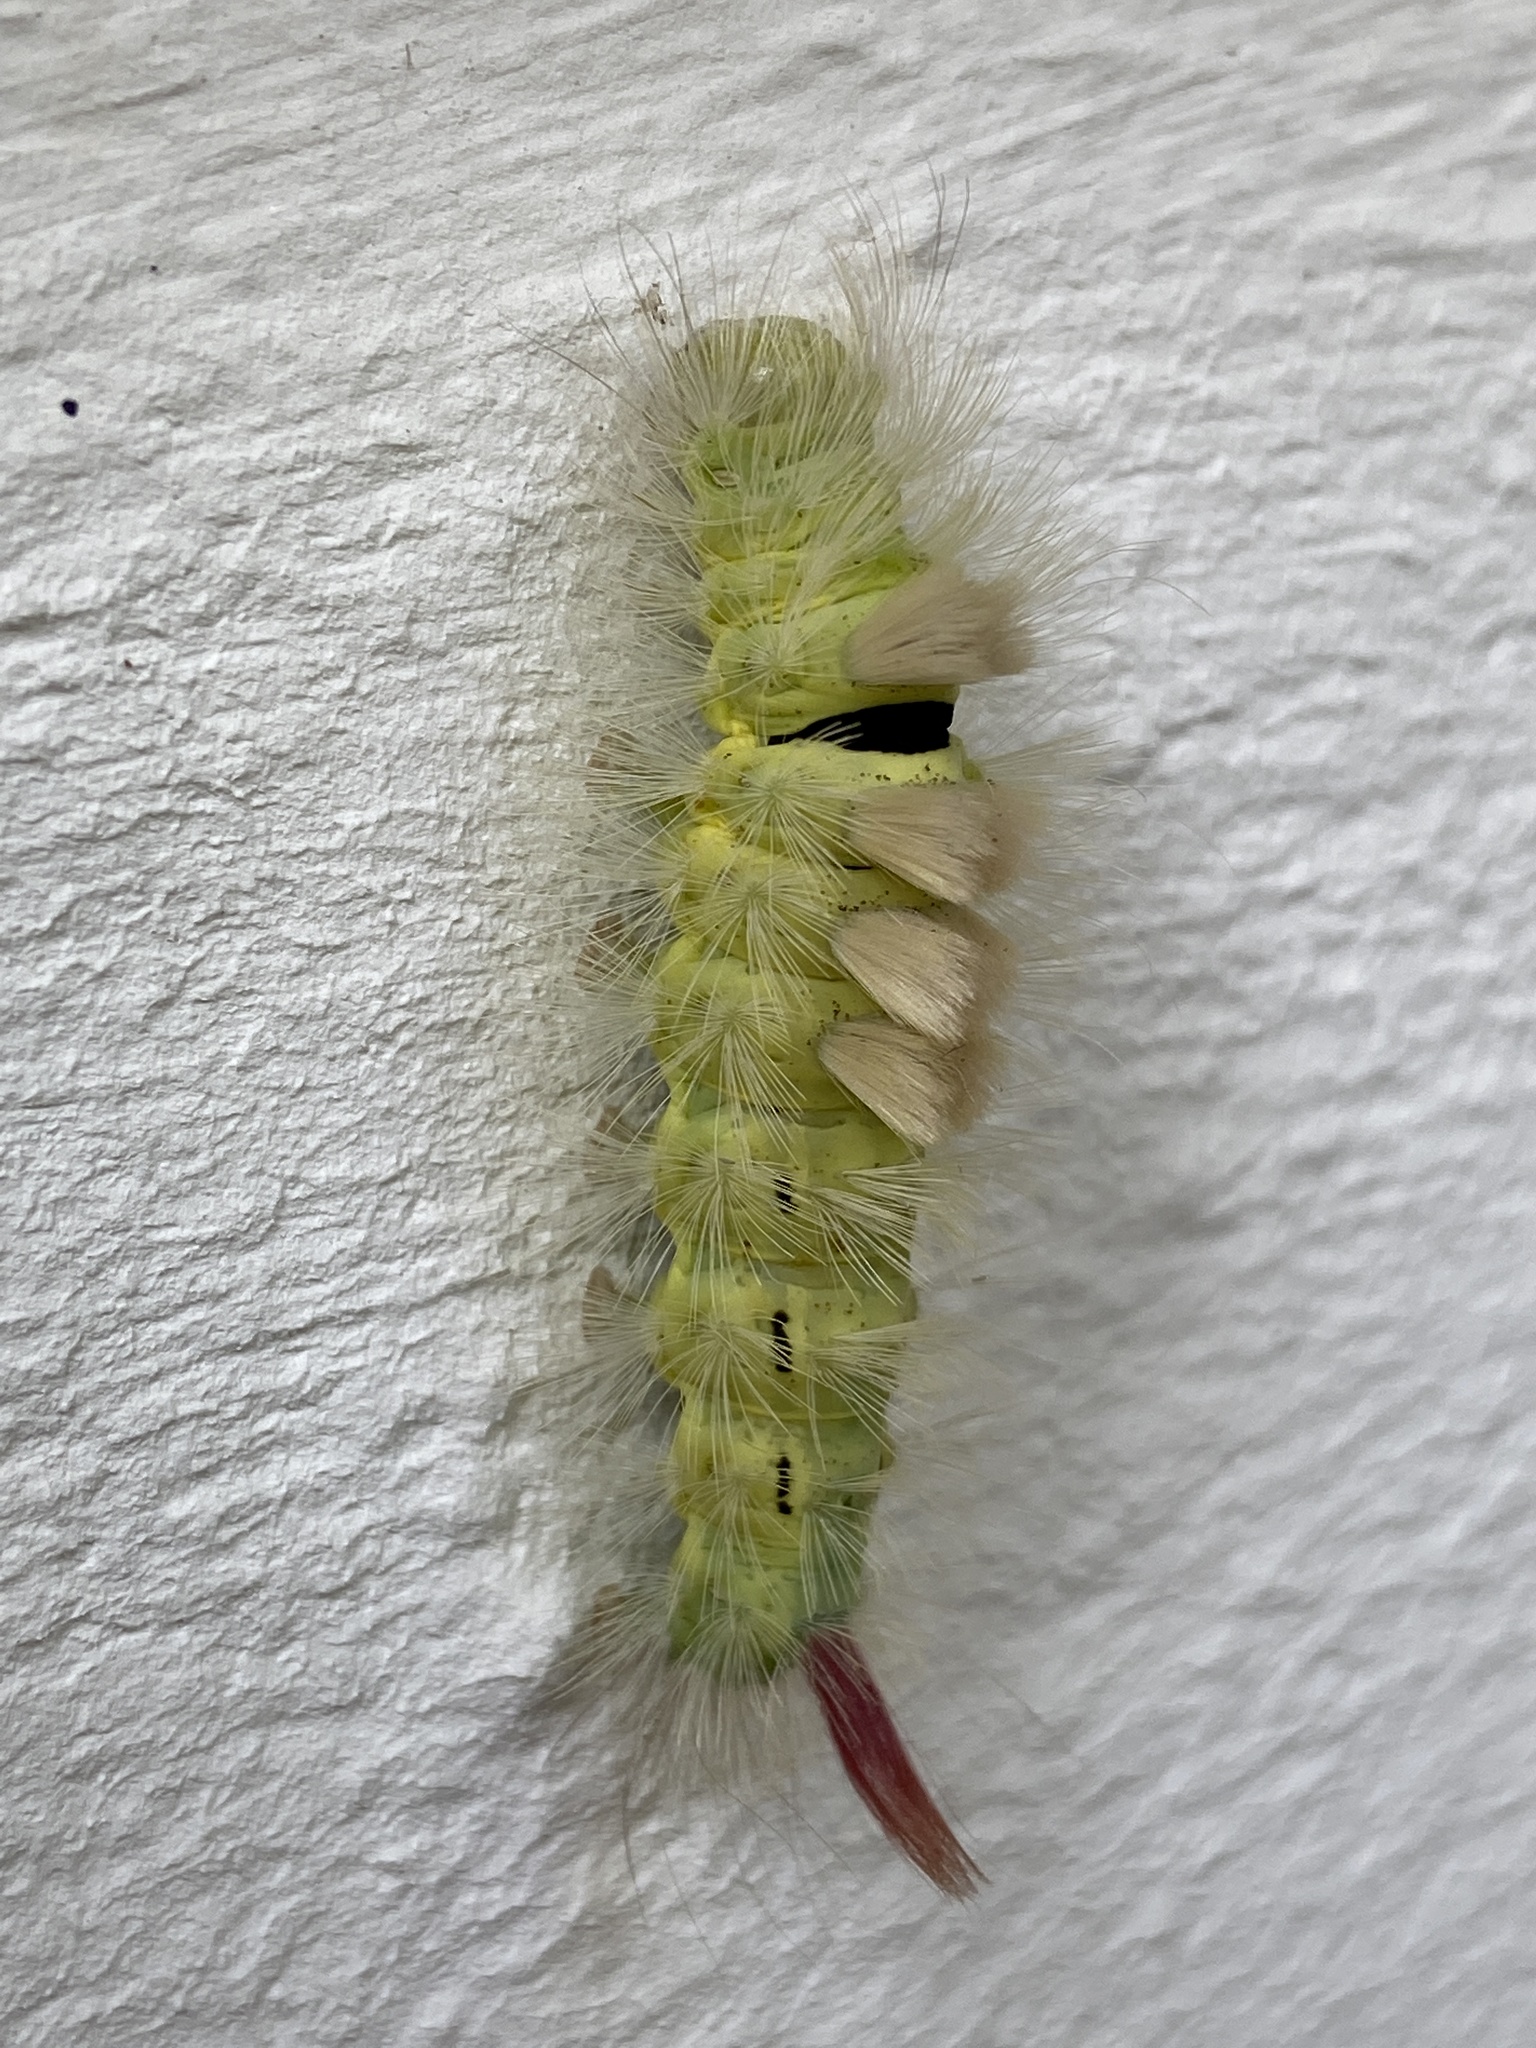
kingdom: Animalia
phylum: Arthropoda
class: Insecta
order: Lepidoptera
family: Erebidae
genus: Calliteara
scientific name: Calliteara pudibunda
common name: Pale tussock
